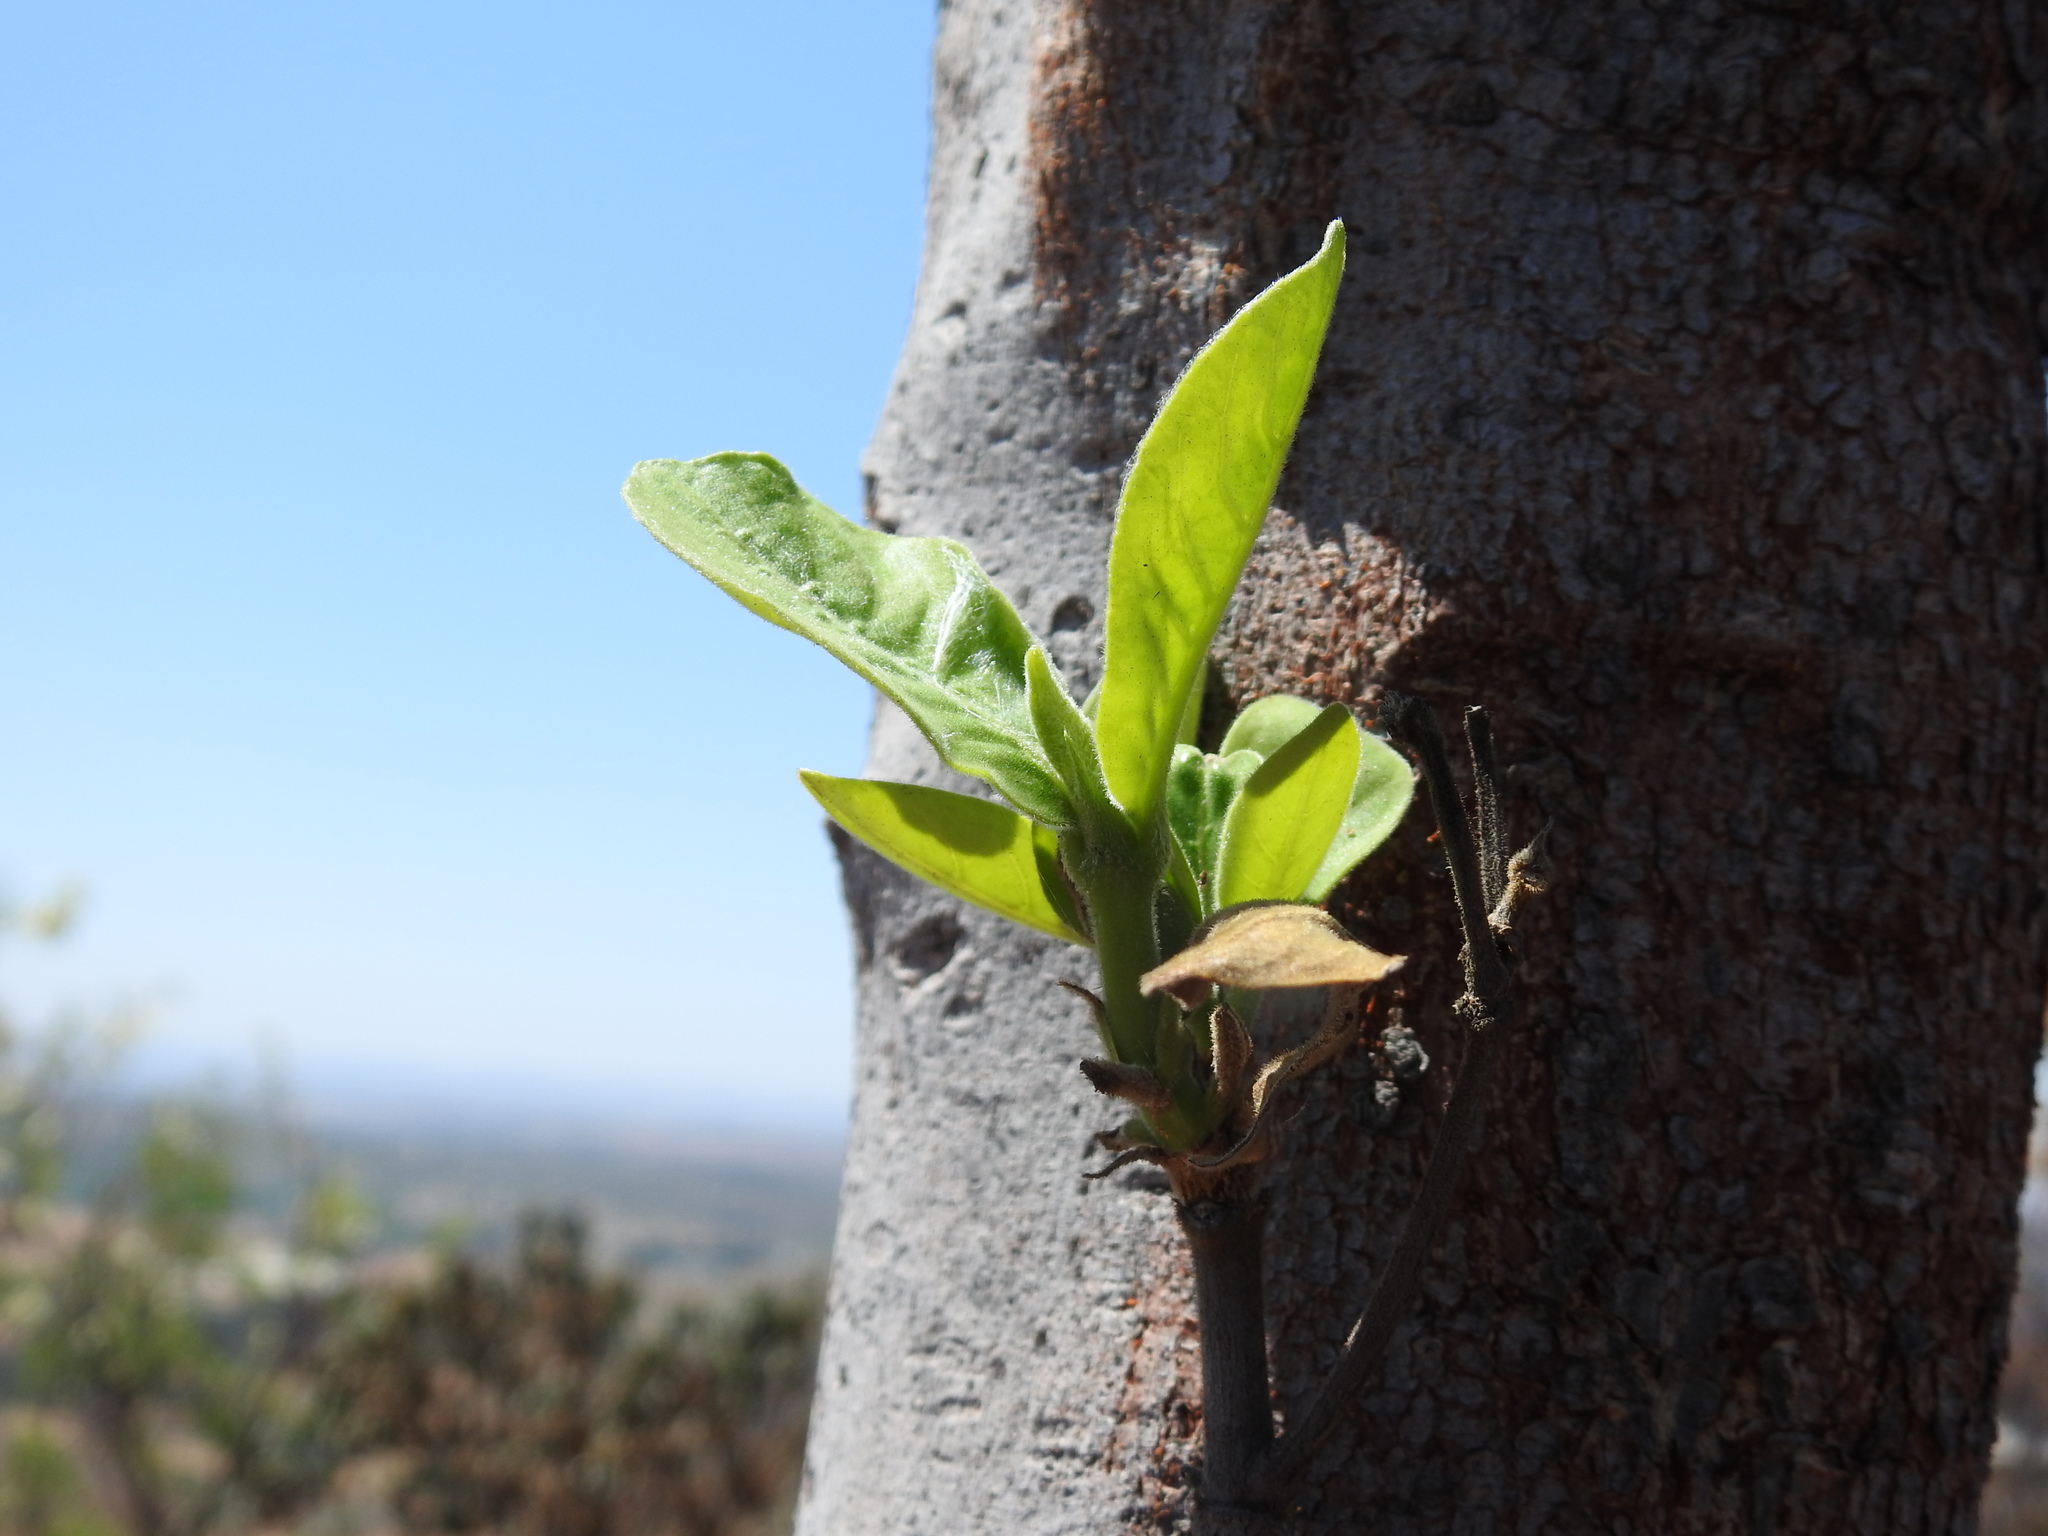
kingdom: Plantae
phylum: Tracheophyta
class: Magnoliopsida
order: Gentianales
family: Rubiaceae
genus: Rothmannia
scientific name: Rothmannia capensis
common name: Cape gardenia
